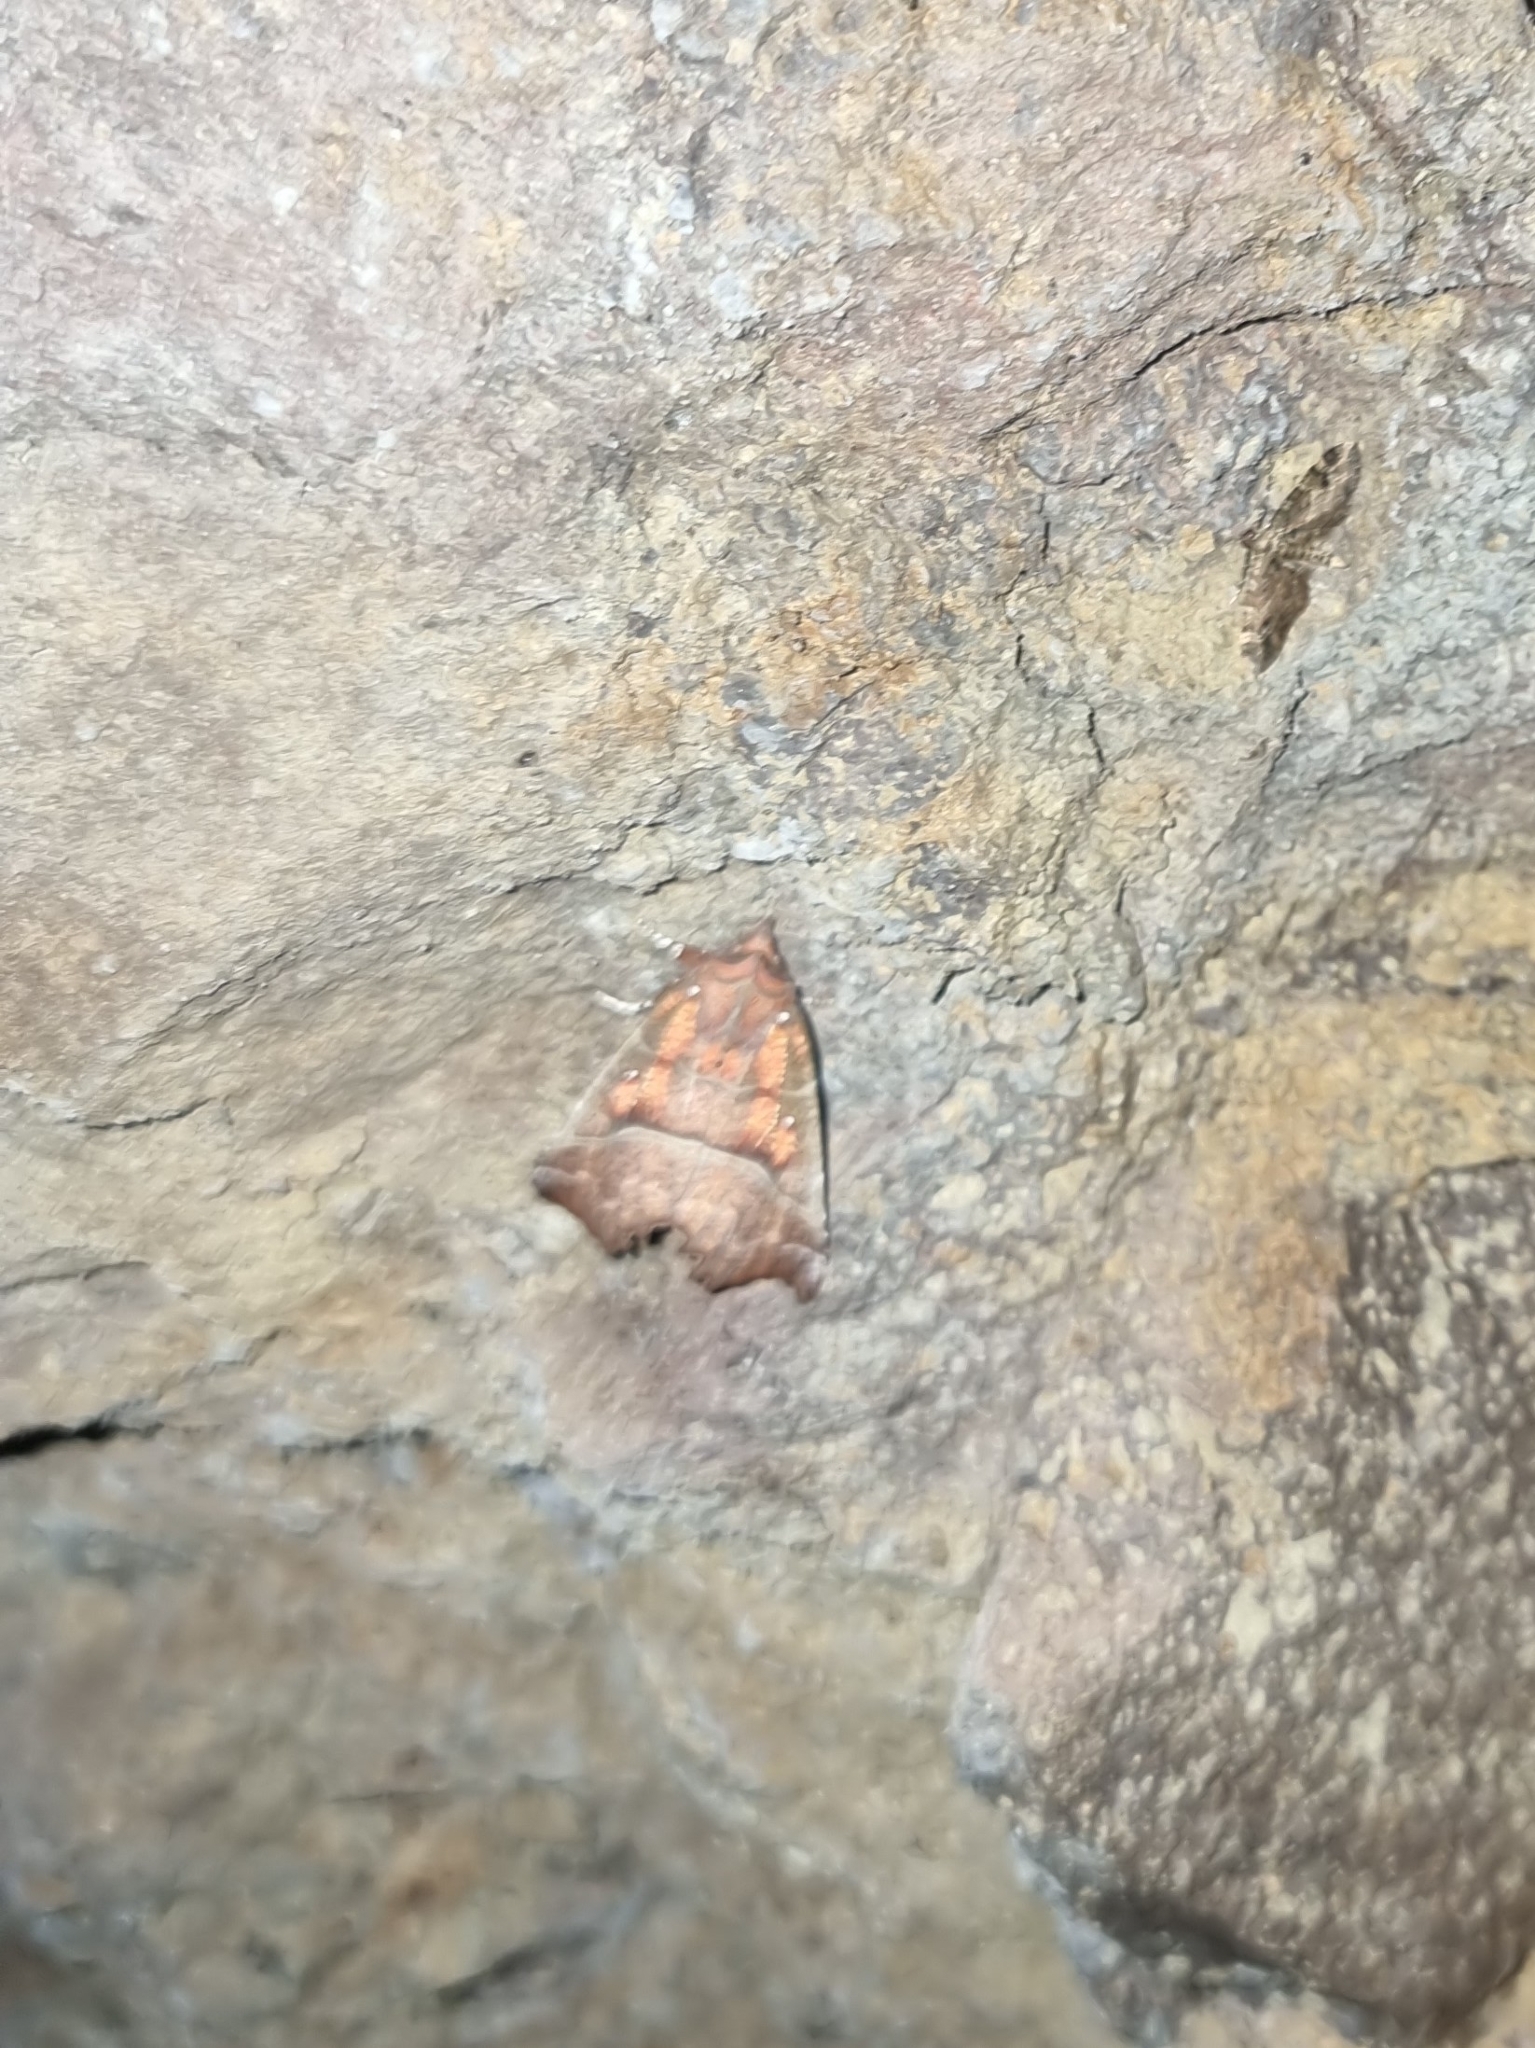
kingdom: Animalia
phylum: Arthropoda
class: Insecta
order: Lepidoptera
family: Erebidae
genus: Scoliopteryx
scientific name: Scoliopteryx libatrix
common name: Herald
